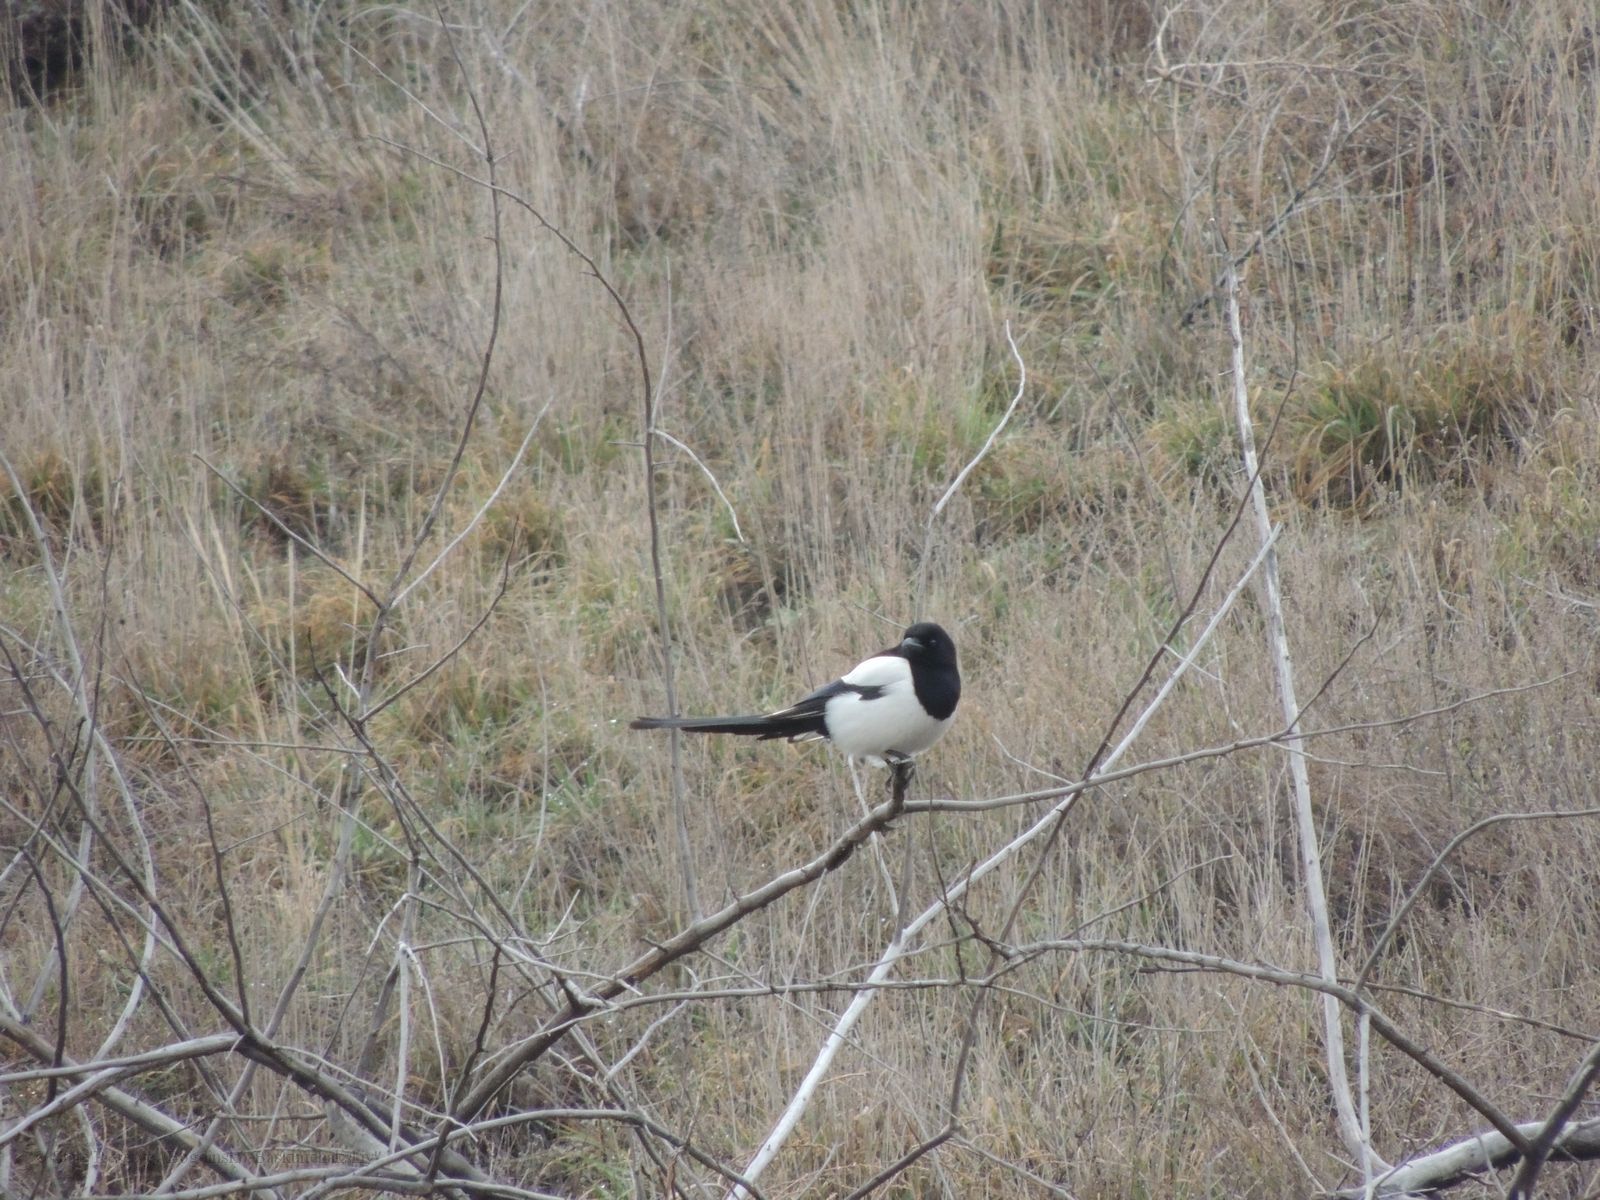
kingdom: Animalia
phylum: Chordata
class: Aves
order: Passeriformes
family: Corvidae
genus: Pica
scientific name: Pica pica
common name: Eurasian magpie
